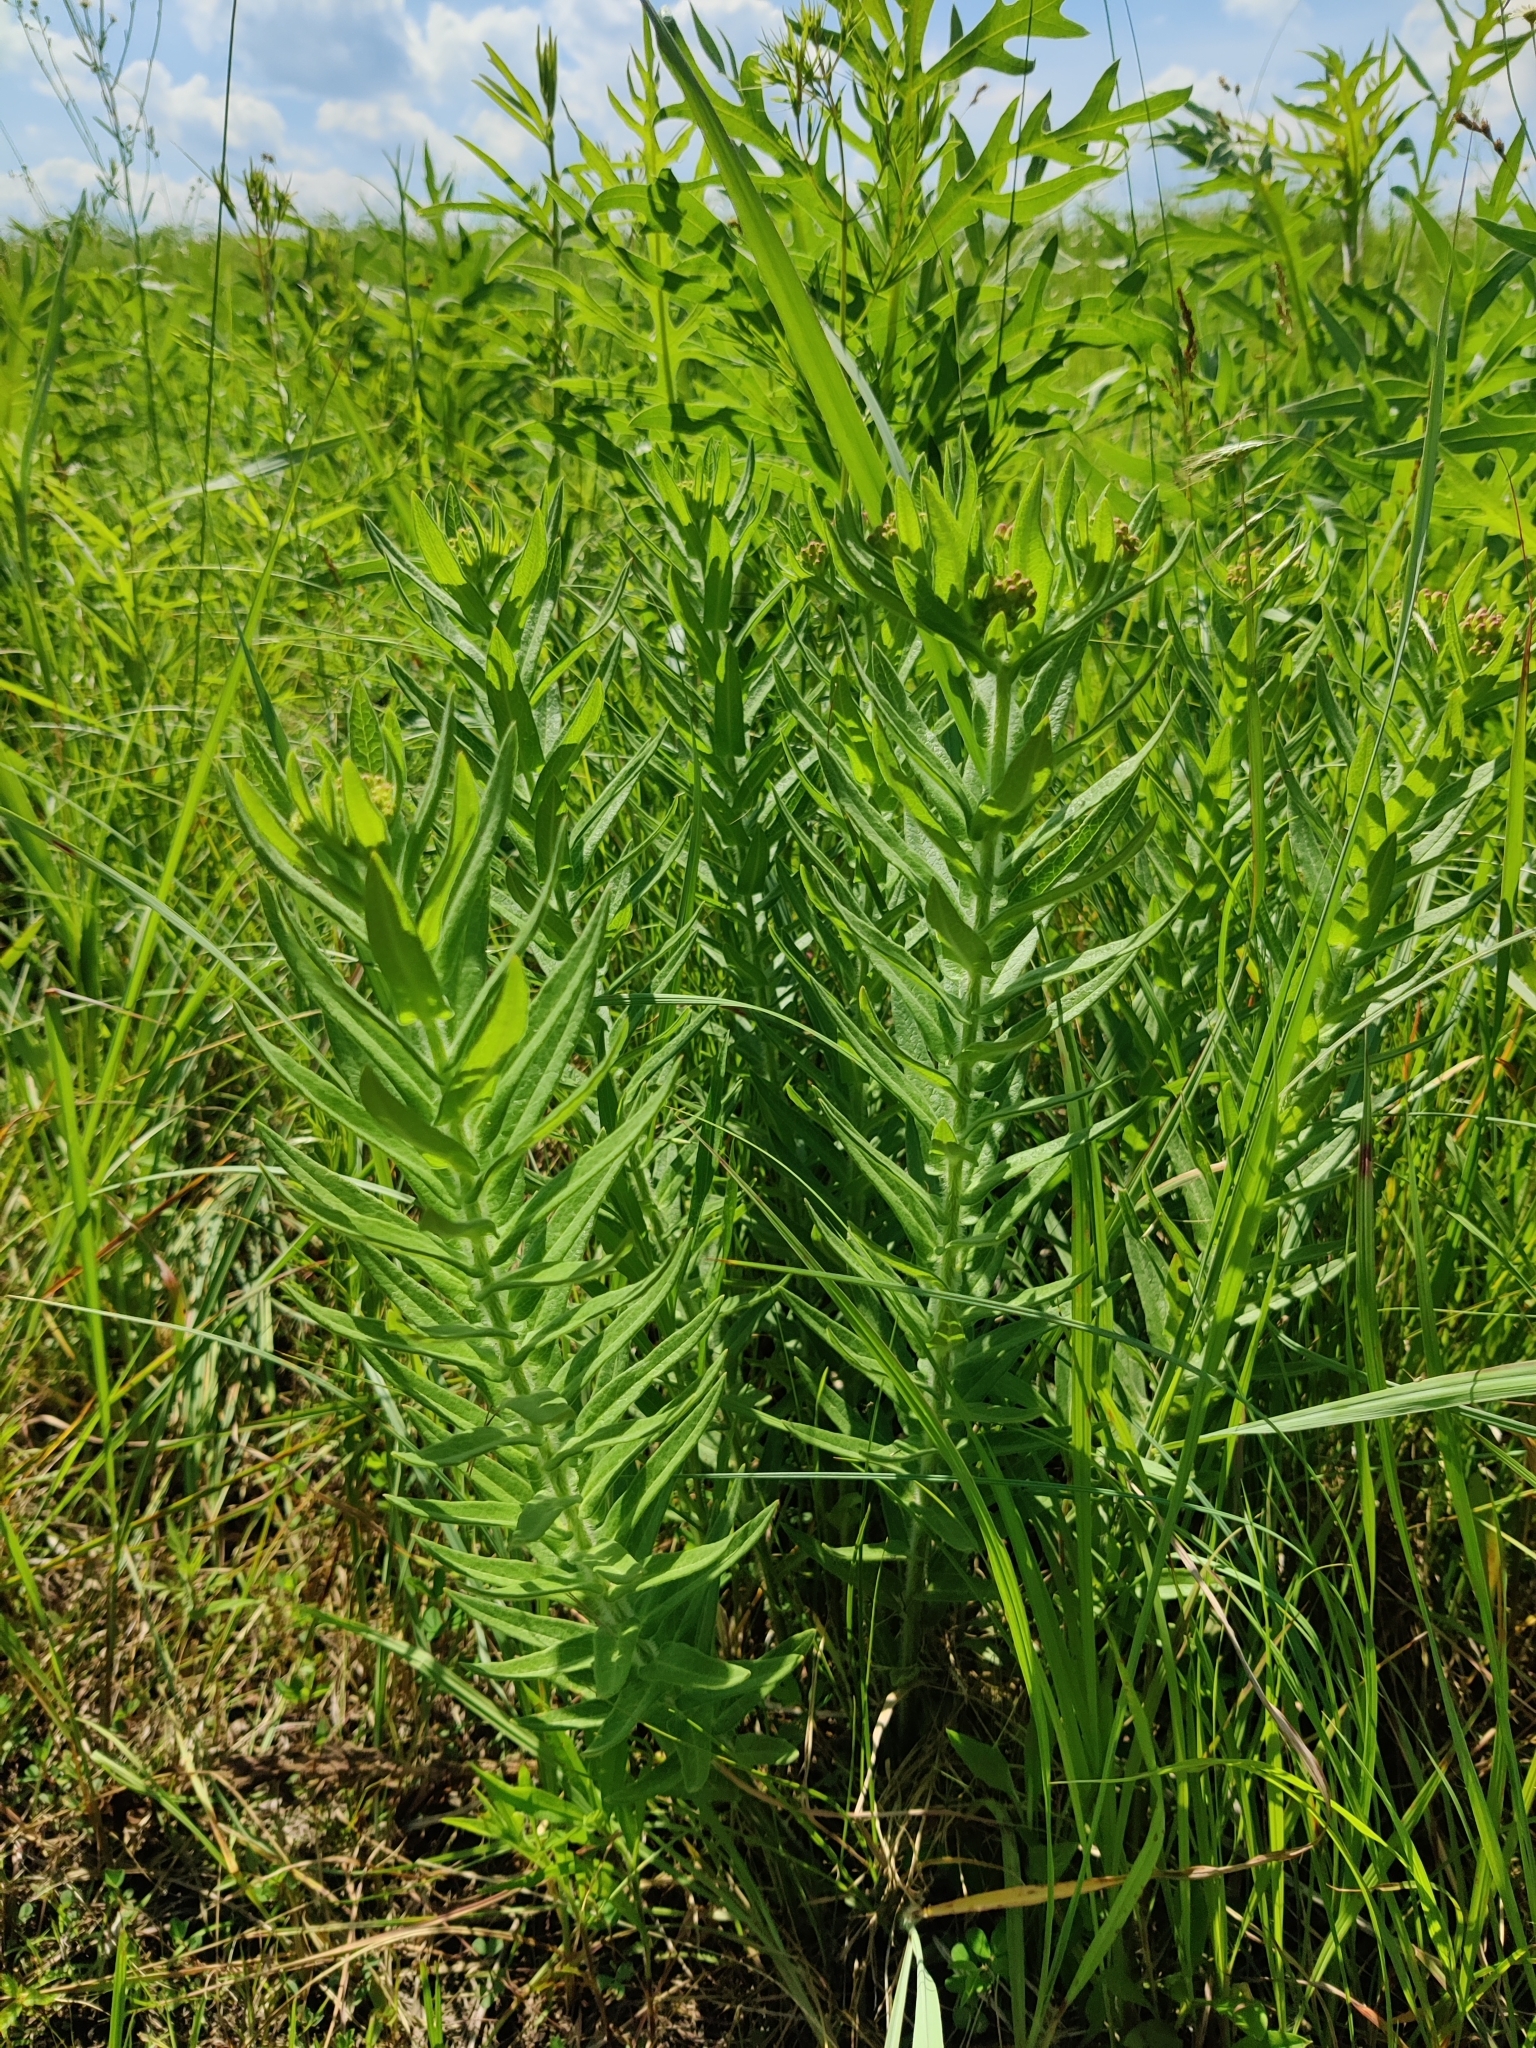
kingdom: Plantae
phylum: Tracheophyta
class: Magnoliopsida
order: Gentianales
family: Apocynaceae
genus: Asclepias
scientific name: Asclepias tuberosa
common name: Butterfly milkweed
